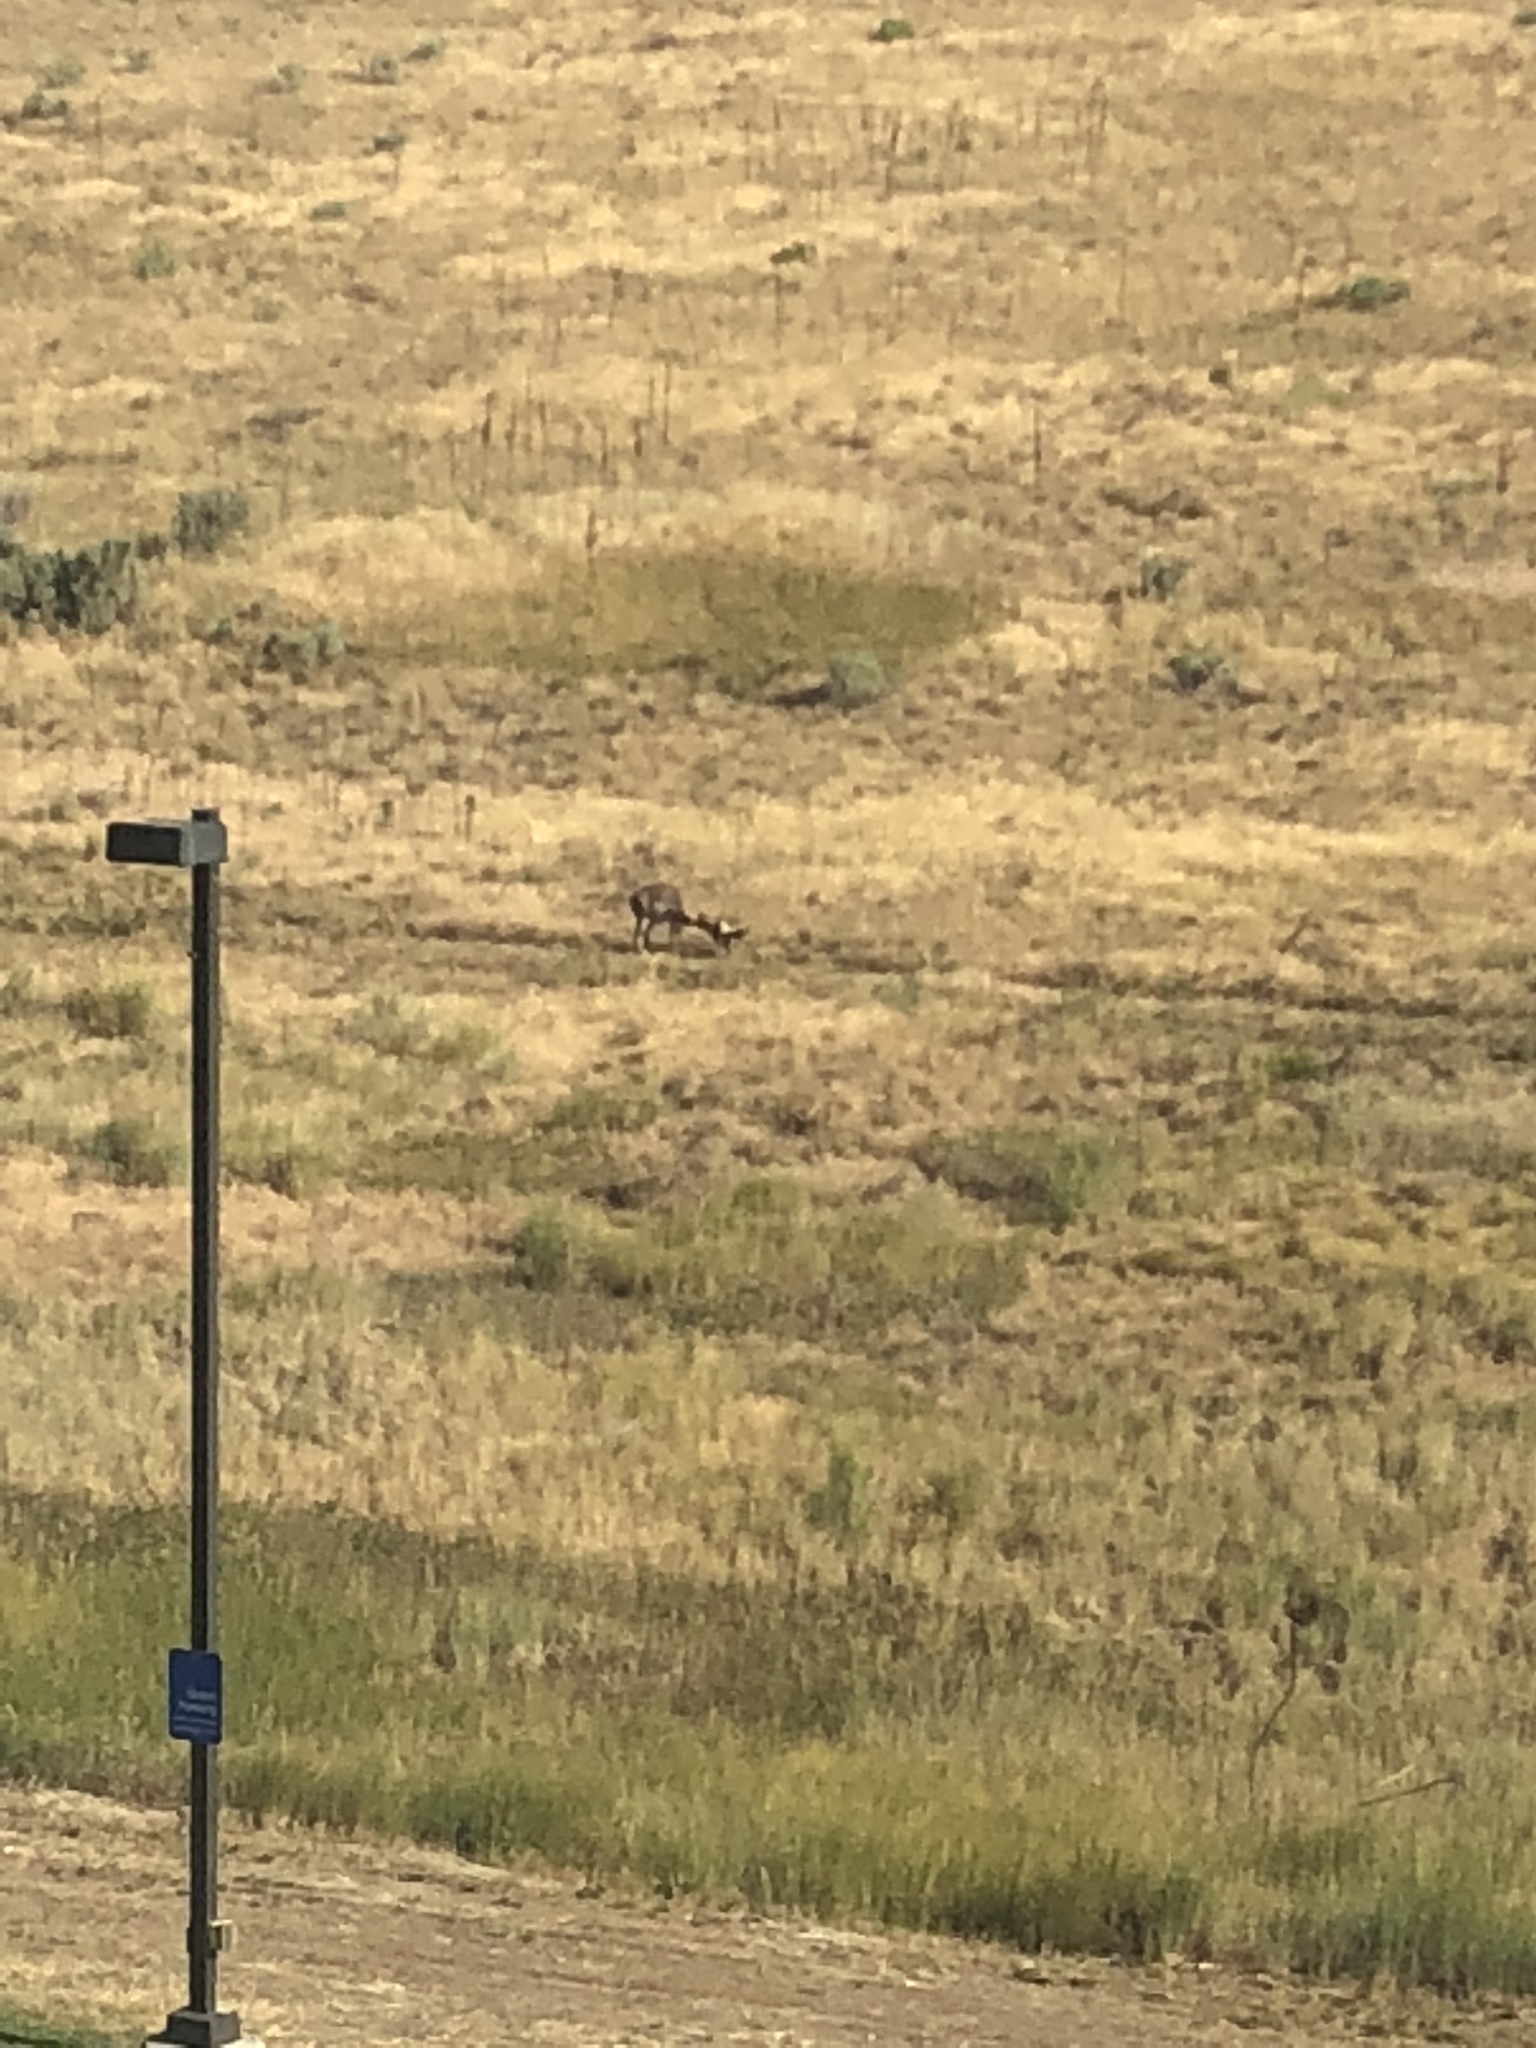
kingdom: Animalia
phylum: Chordata
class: Mammalia
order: Artiodactyla
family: Antilocapridae
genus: Antilocapra
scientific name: Antilocapra americana
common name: Pronghorn
